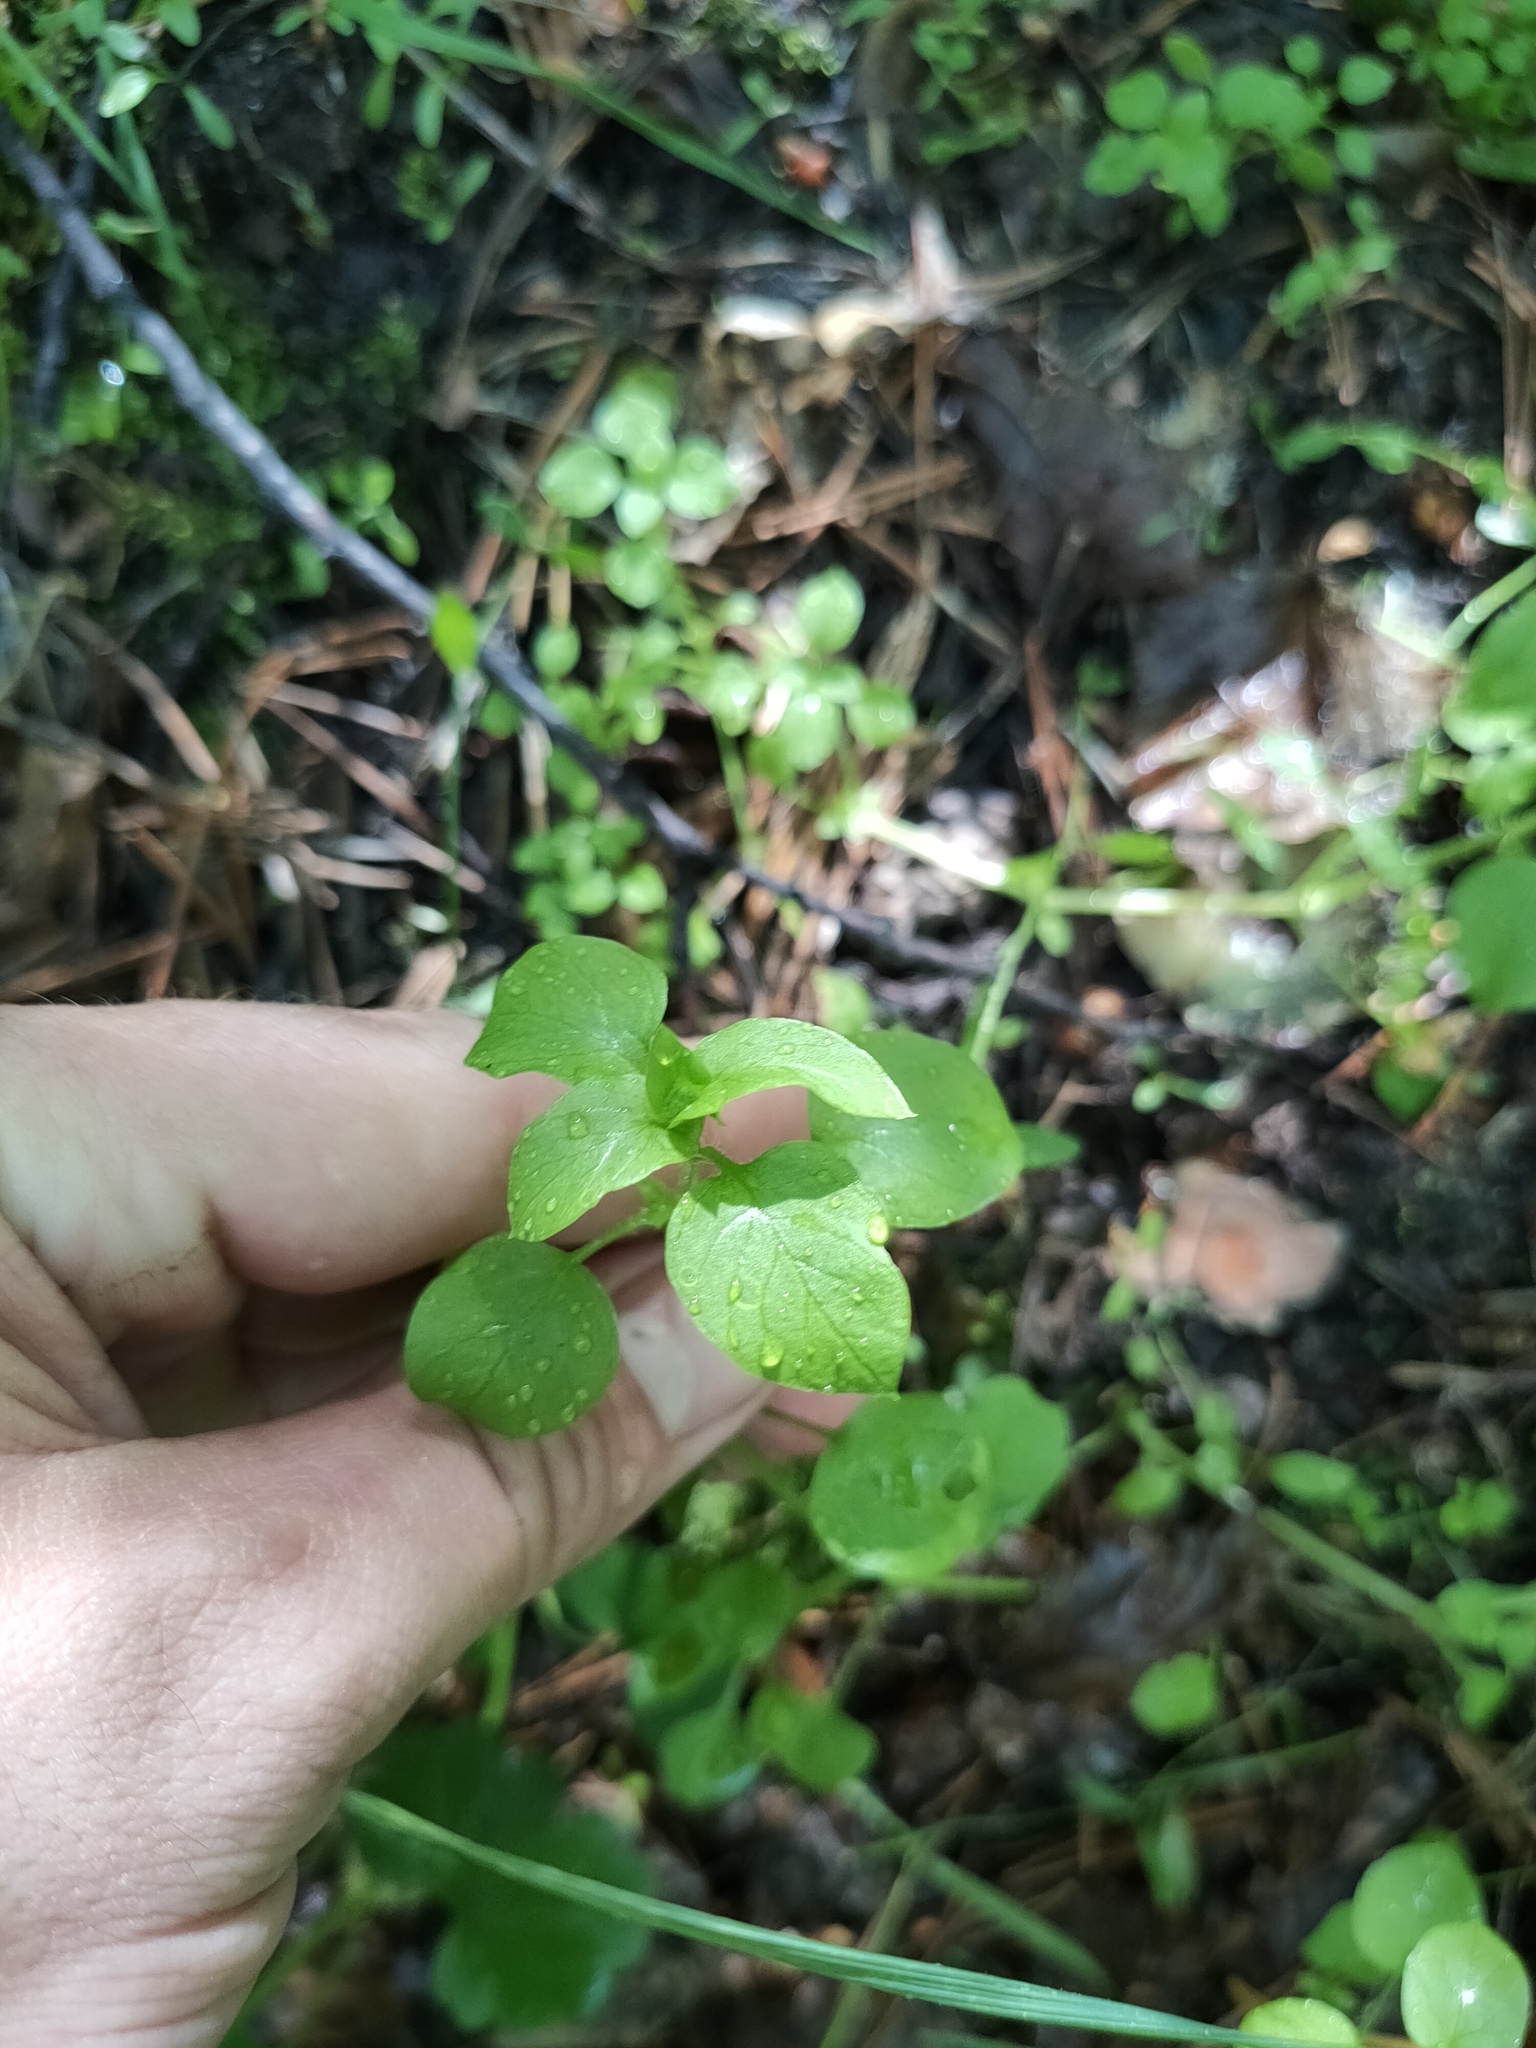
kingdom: Plantae
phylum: Tracheophyta
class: Magnoliopsida
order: Caryophyllales
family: Caryophyllaceae
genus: Stellaria
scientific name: Stellaria media
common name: Common chickweed
